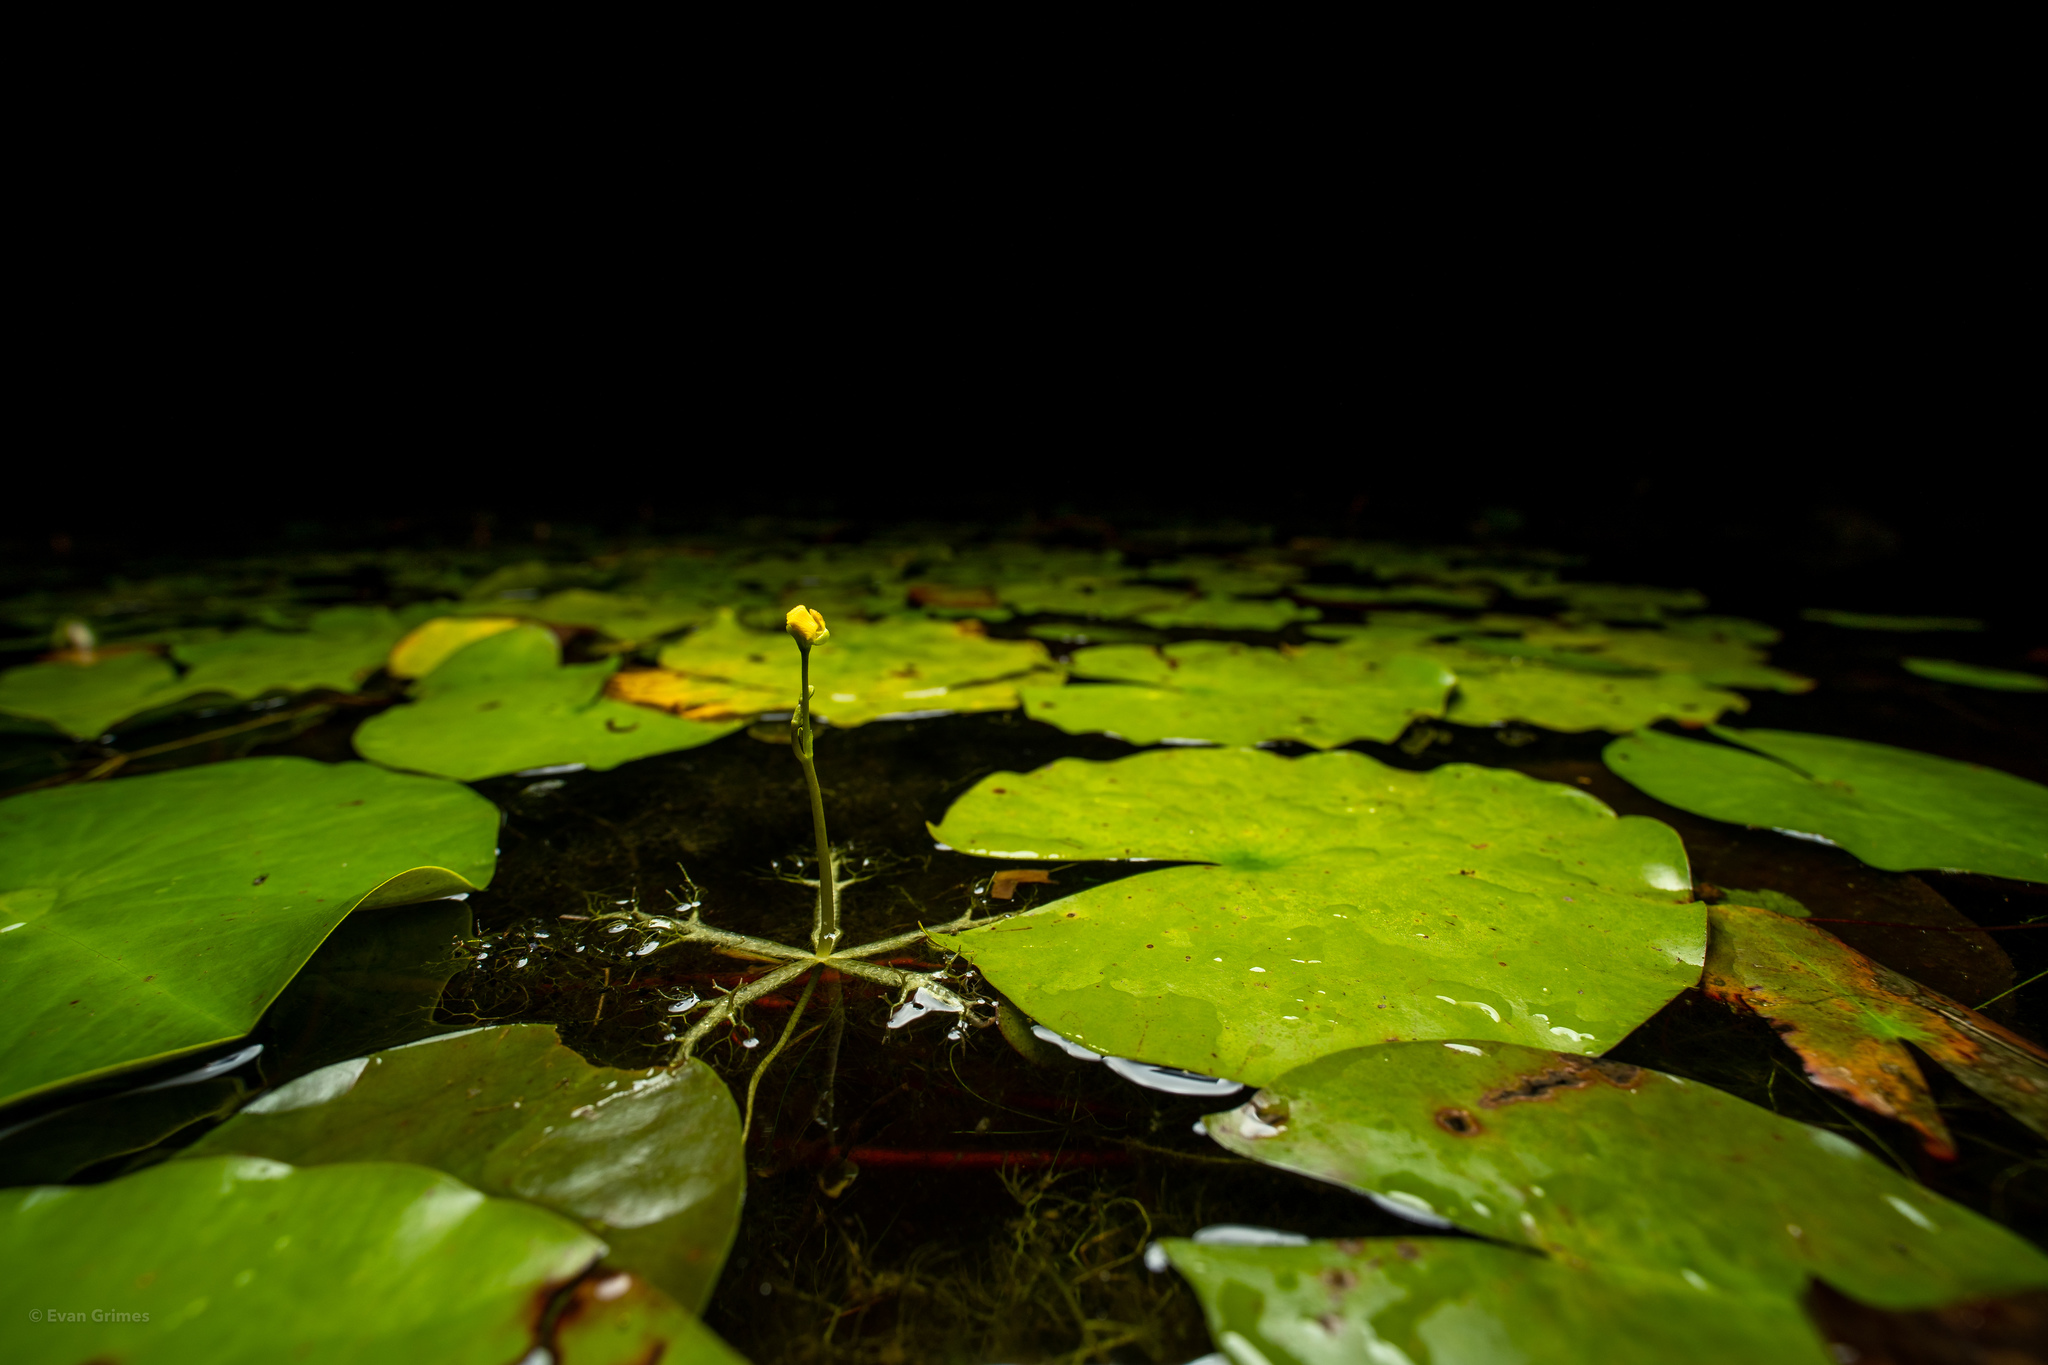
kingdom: Plantae
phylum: Tracheophyta
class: Magnoliopsida
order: Lamiales
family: Lentibulariaceae
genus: Utricularia
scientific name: Utricularia radiata
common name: Floating bladderwort
